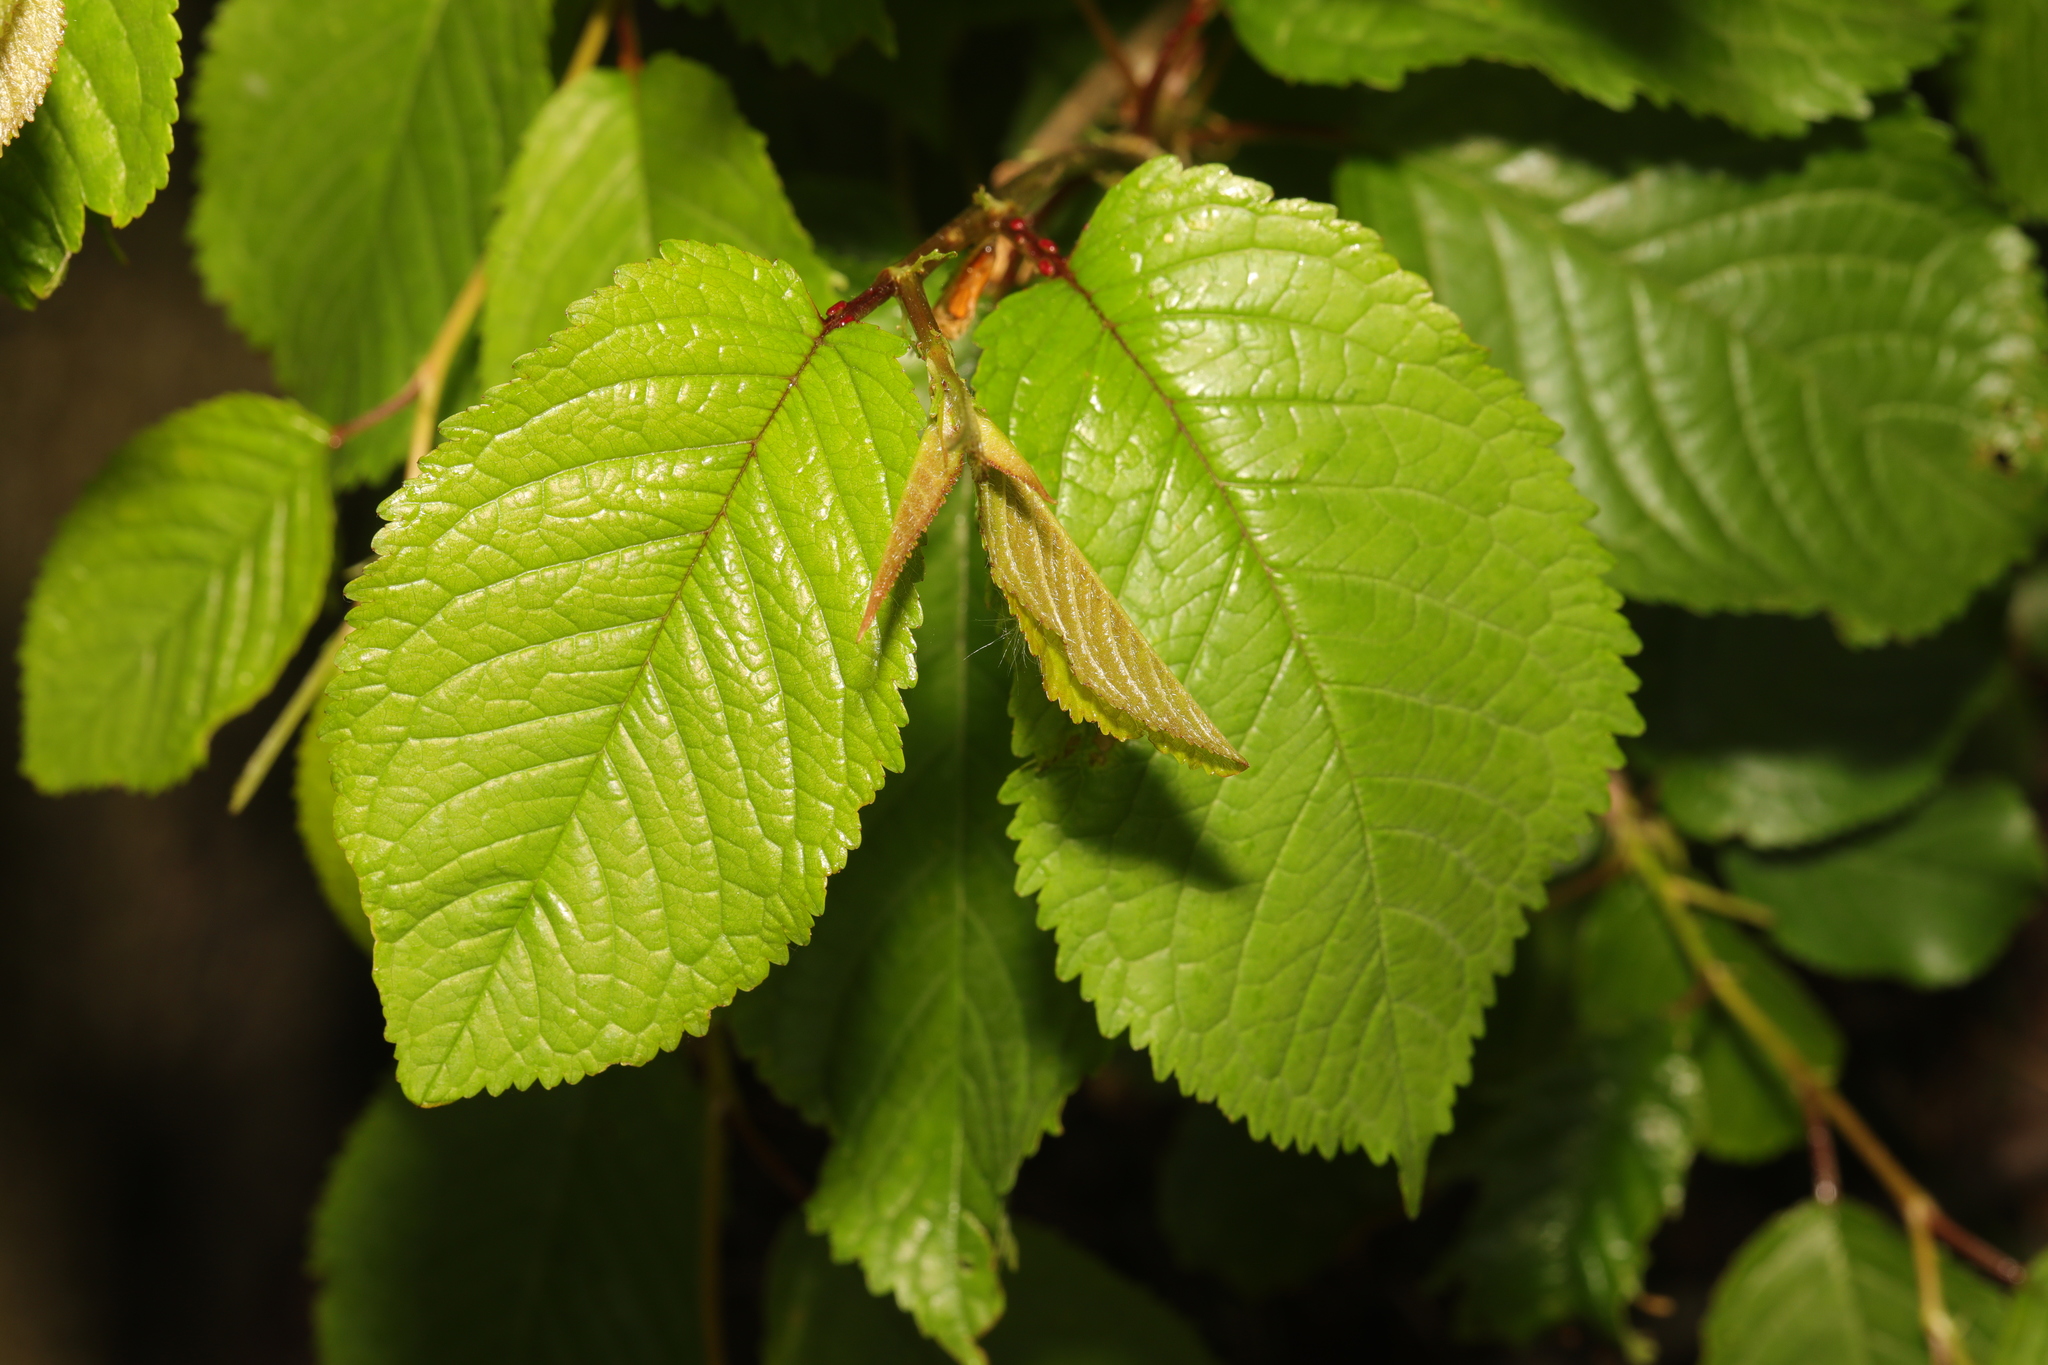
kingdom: Plantae
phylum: Tracheophyta
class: Magnoliopsida
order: Rosales
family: Rosaceae
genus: Prunus
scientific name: Prunus avium
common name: Sweet cherry
